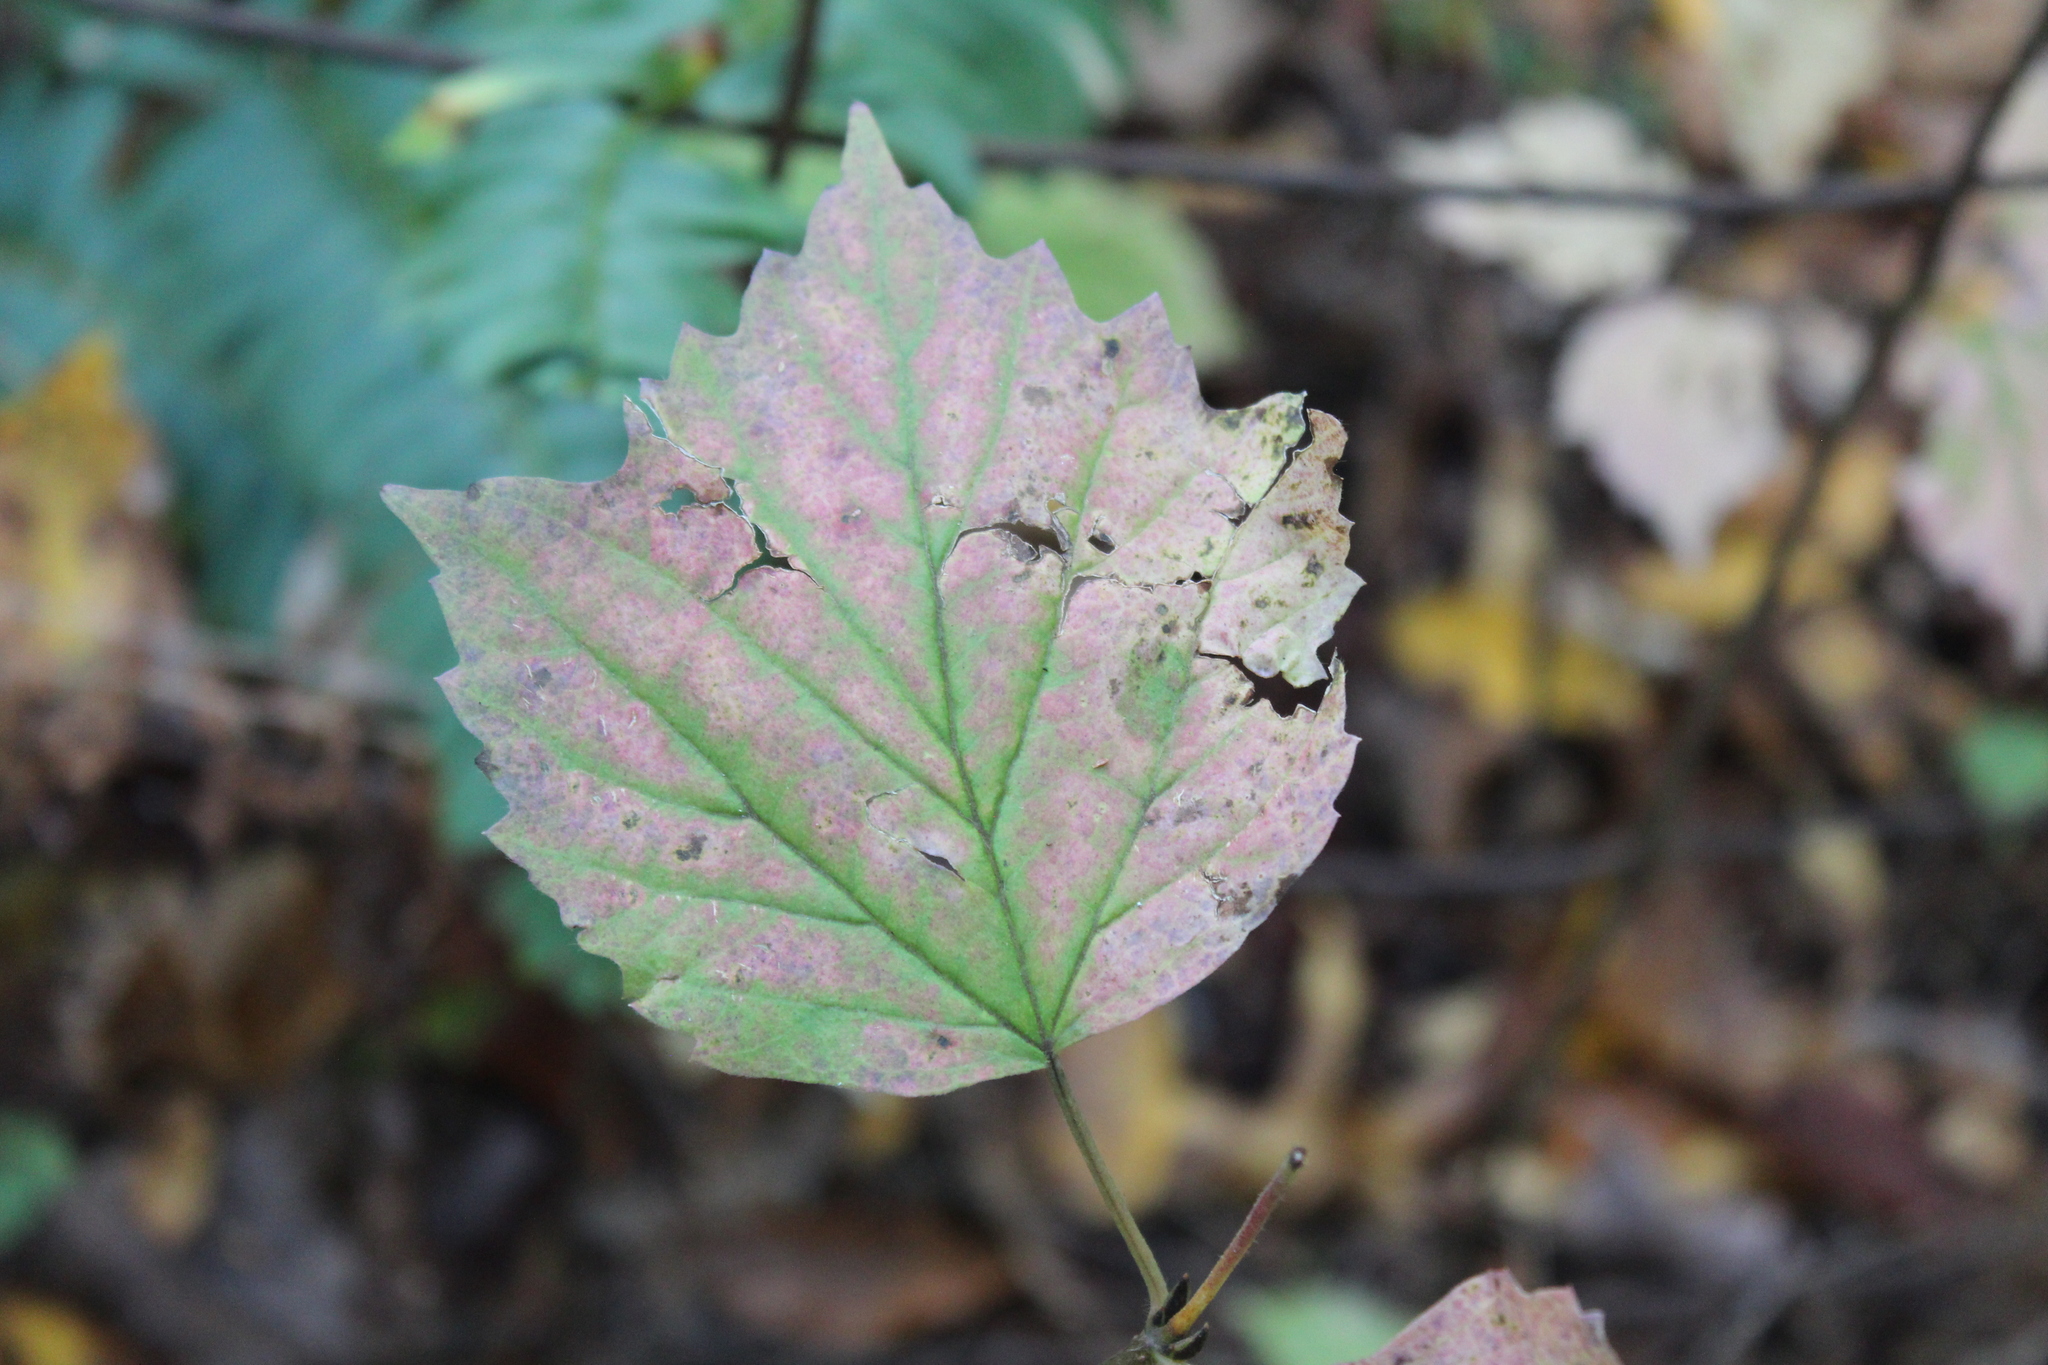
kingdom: Plantae
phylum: Tracheophyta
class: Magnoliopsida
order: Dipsacales
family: Viburnaceae
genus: Viburnum
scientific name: Viburnum acerifolium
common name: Dockmackie
